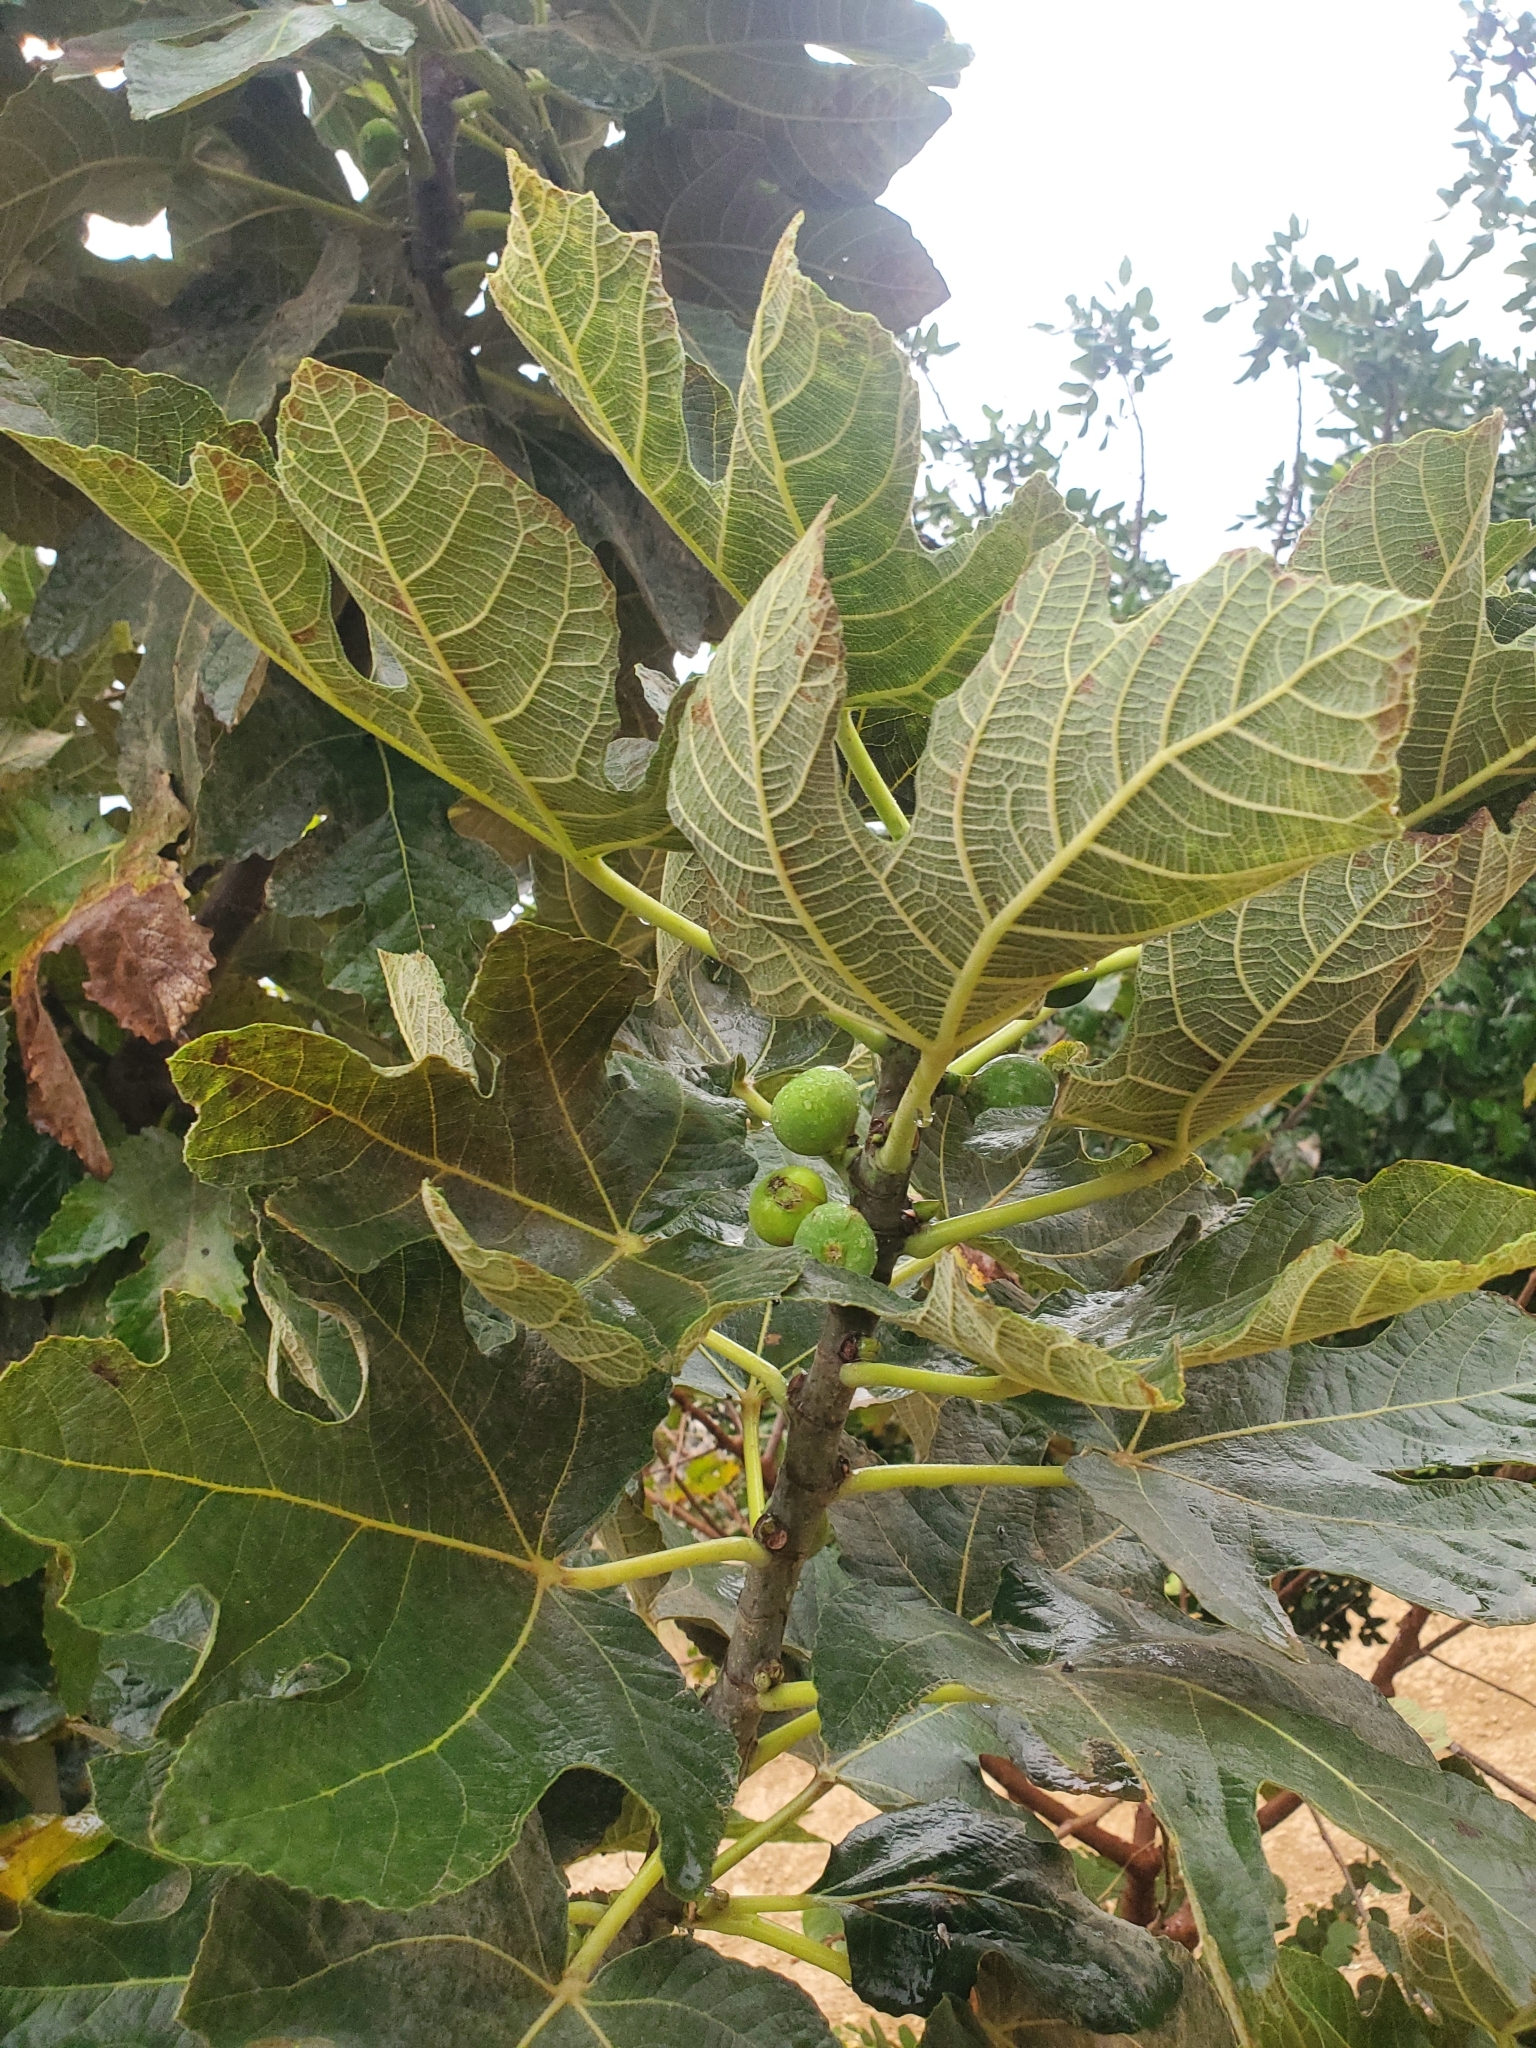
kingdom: Plantae
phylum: Tracheophyta
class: Magnoliopsida
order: Rosales
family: Moraceae
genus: Ficus
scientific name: Ficus carica
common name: Fig
